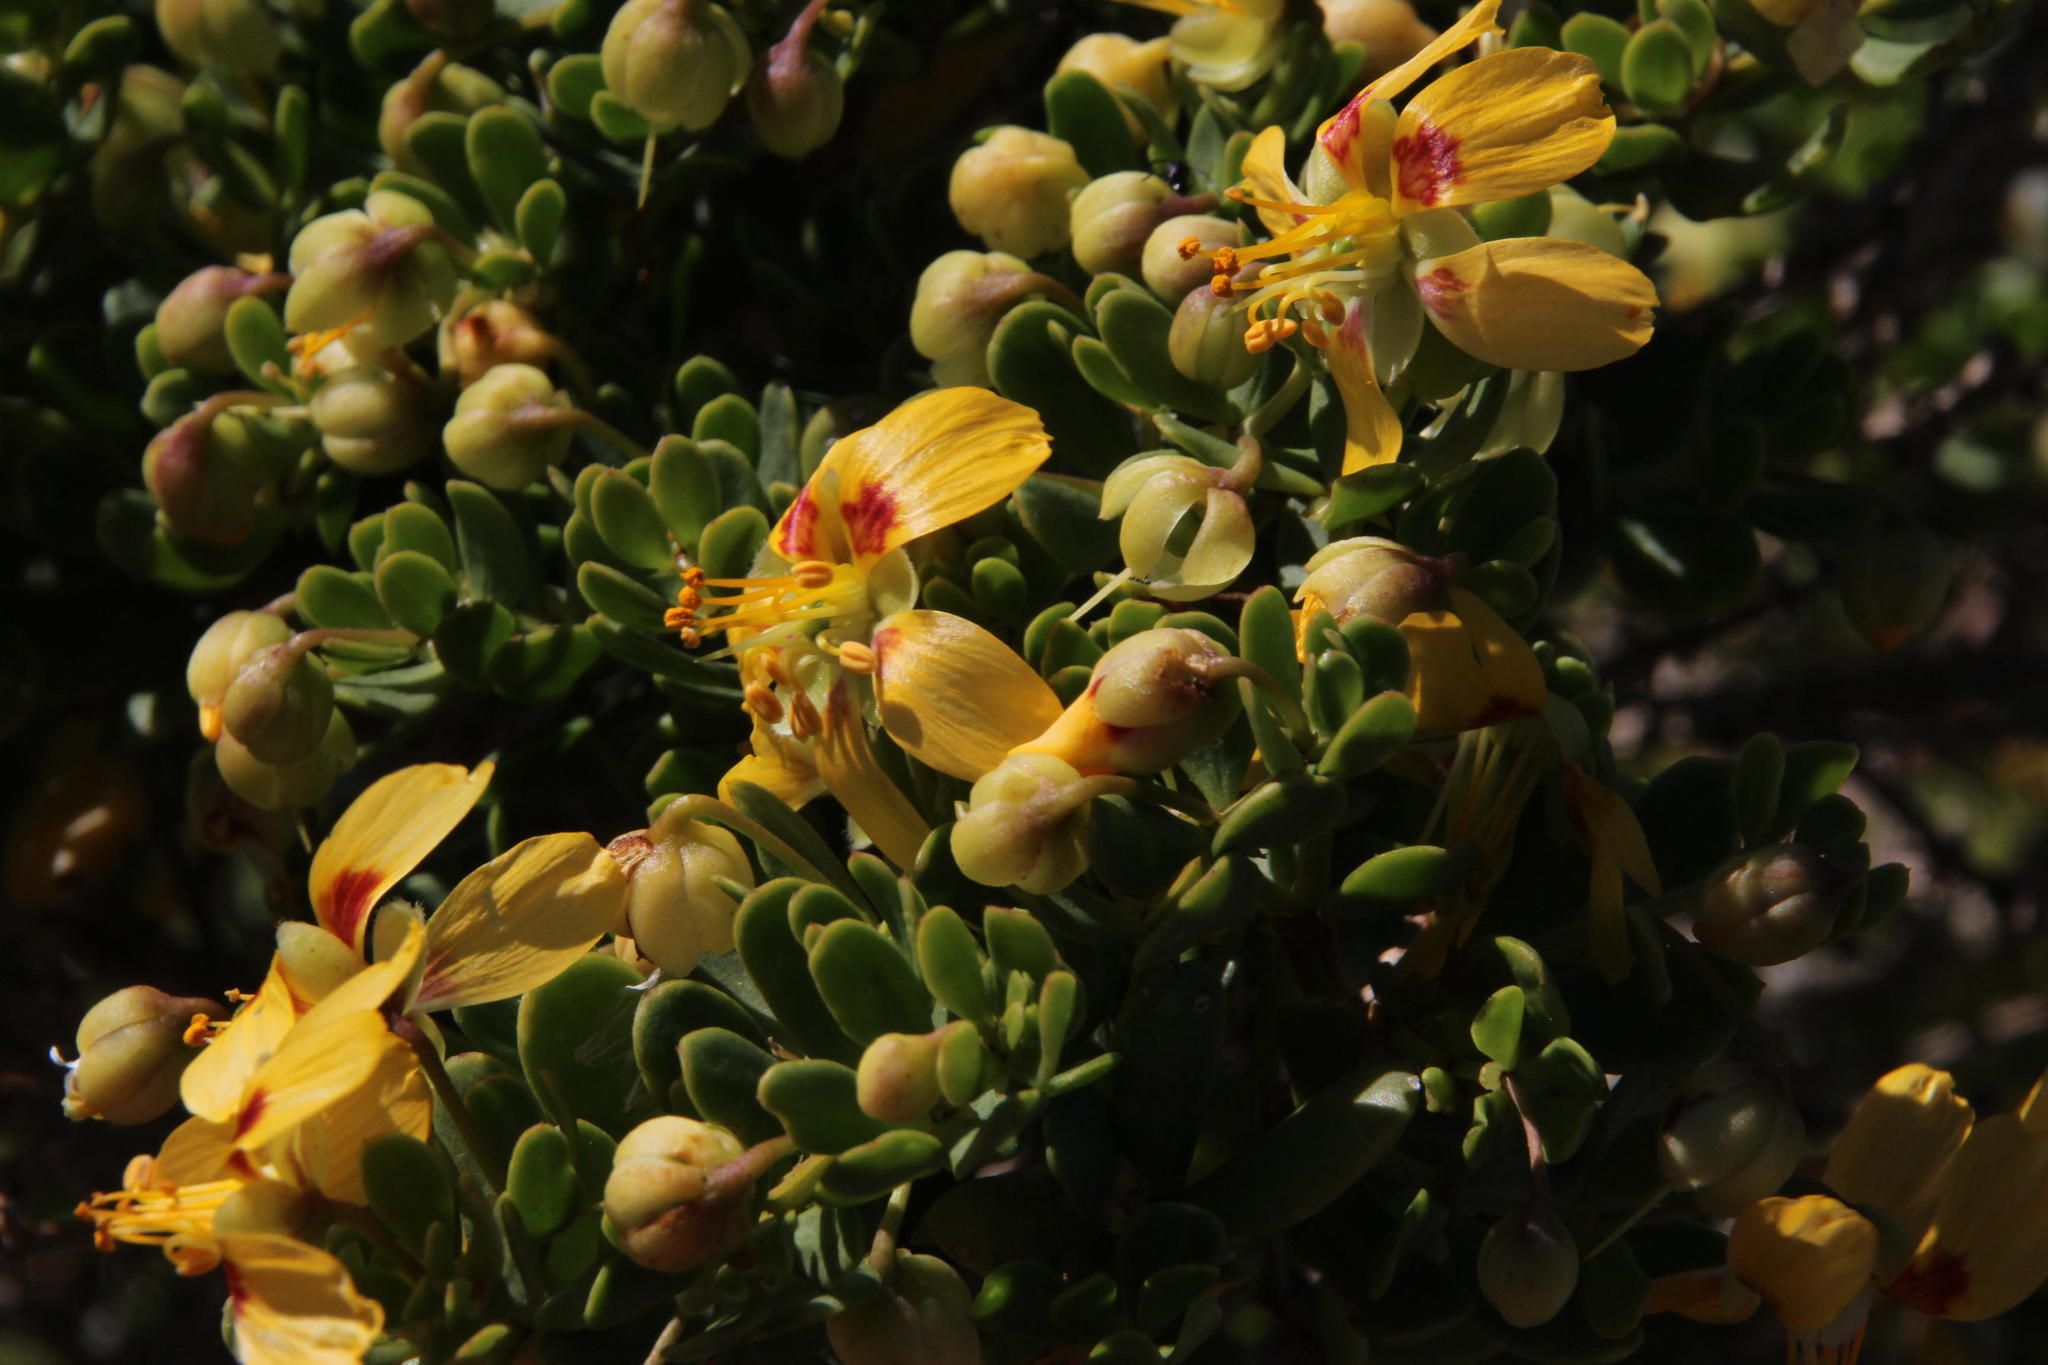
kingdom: Plantae
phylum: Tracheophyta
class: Magnoliopsida
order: Zygophyllales
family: Zygophyllaceae
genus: Roepera
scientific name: Roepera flexuosa
